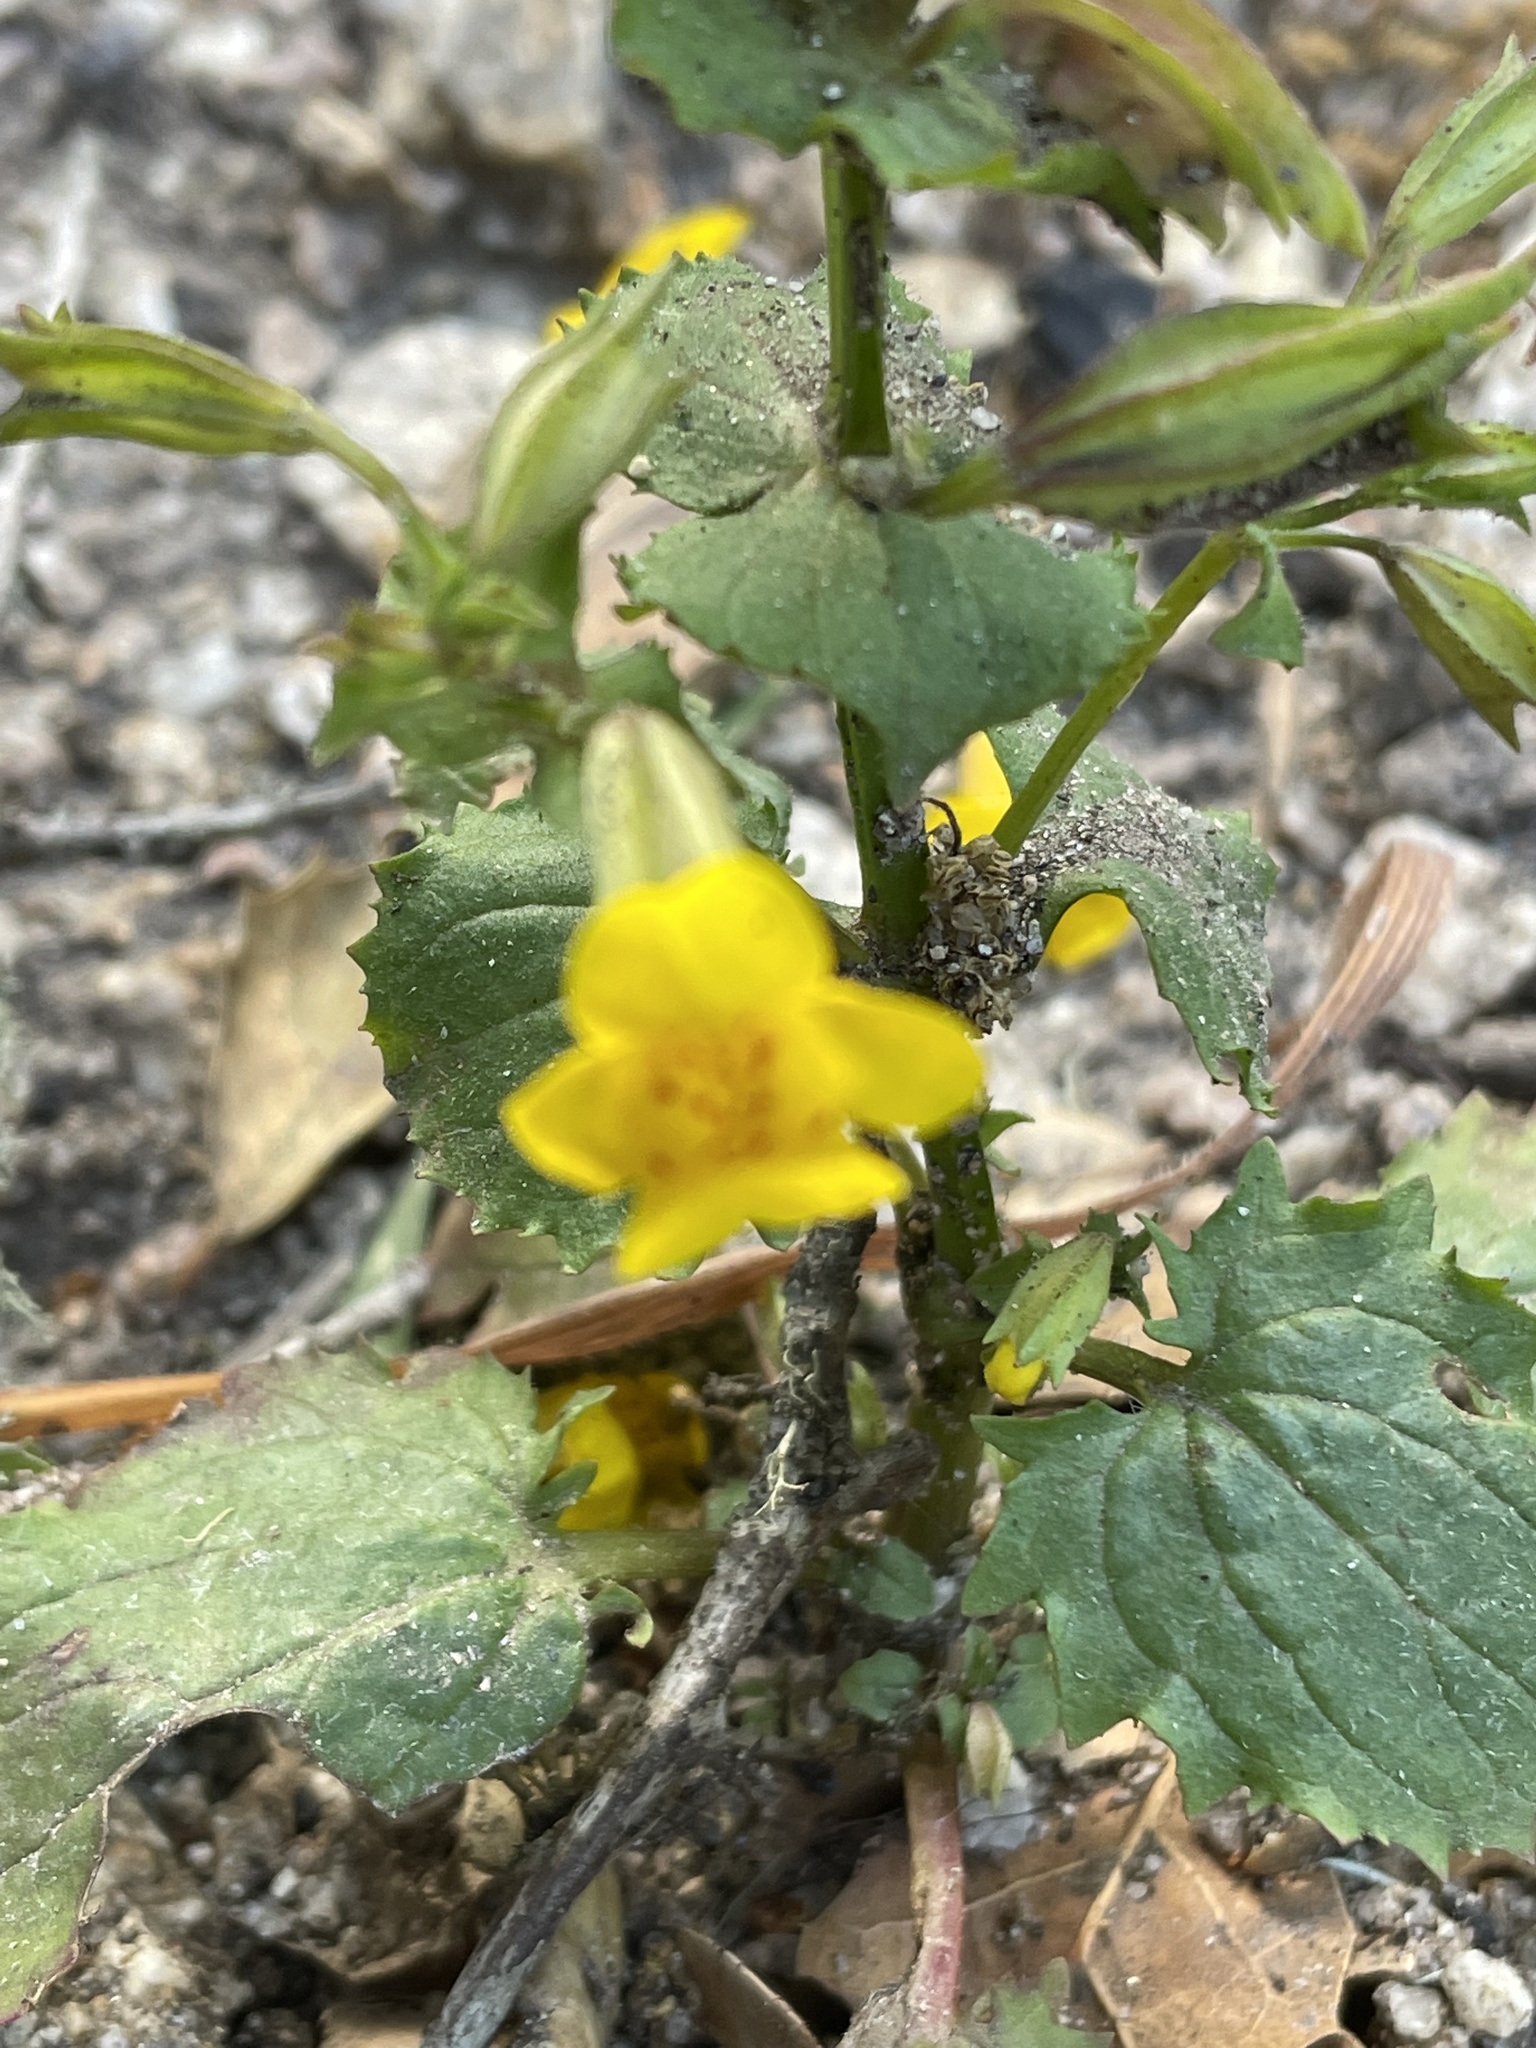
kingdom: Plantae
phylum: Tracheophyta
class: Magnoliopsida
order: Lamiales
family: Phrymaceae
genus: Erythranthe
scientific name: Erythranthe guttata
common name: Monkeyflower
